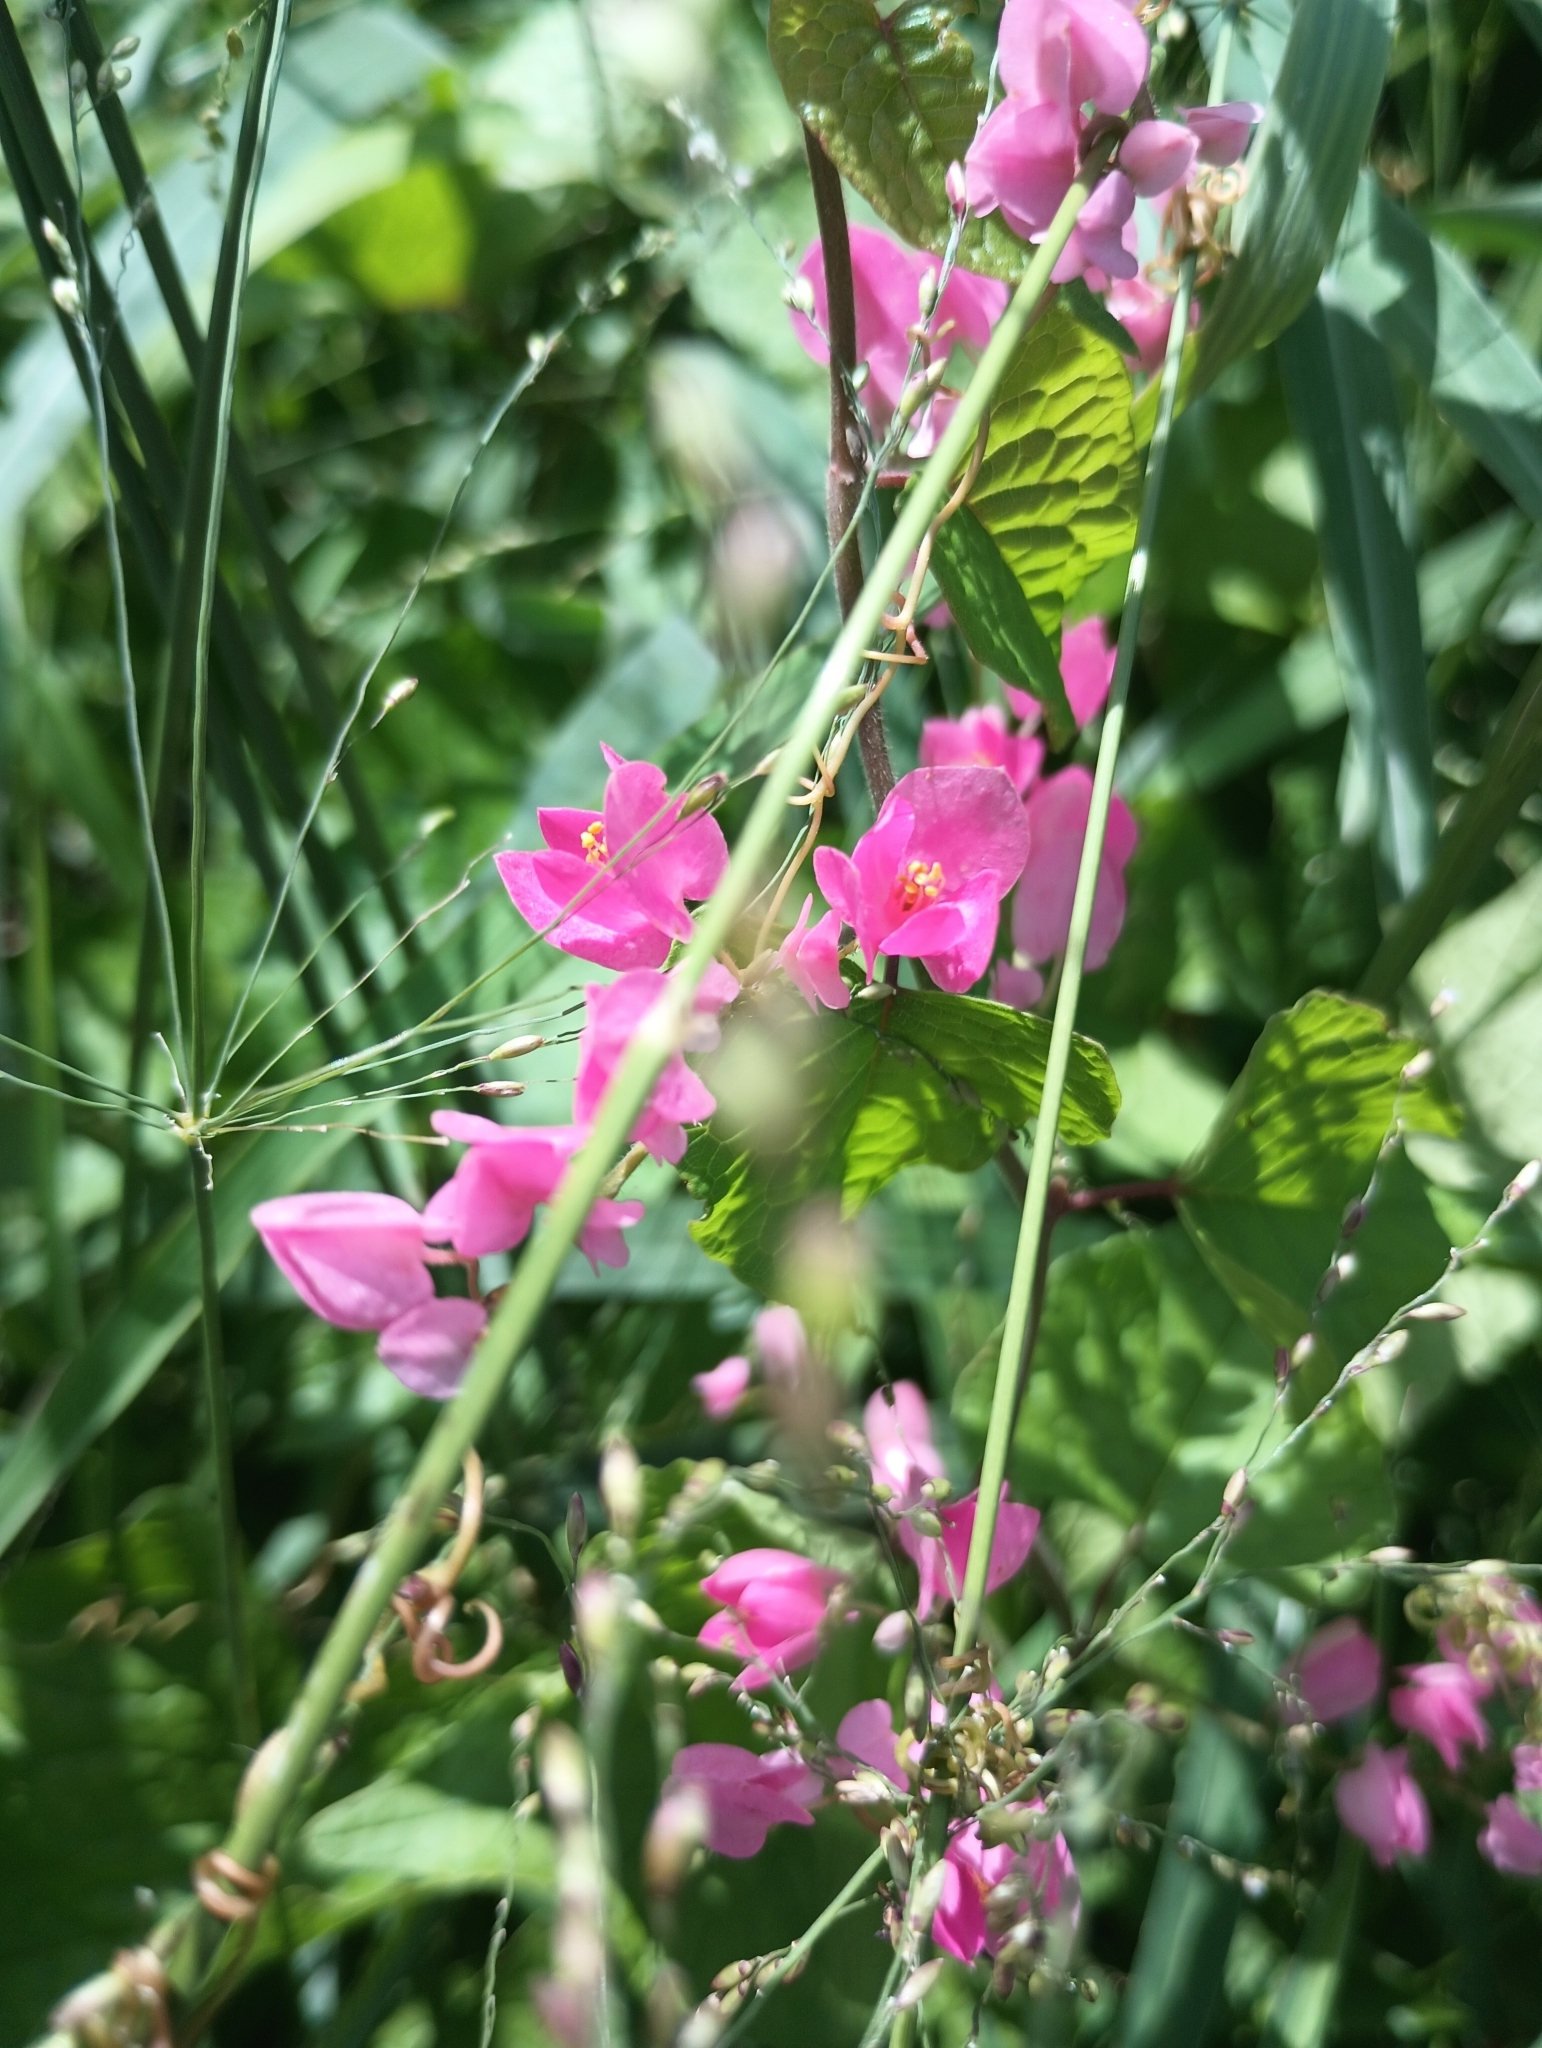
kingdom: Plantae
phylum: Tracheophyta
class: Magnoliopsida
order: Caryophyllales
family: Polygonaceae
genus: Antigonon
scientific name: Antigonon leptopus
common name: Coral vine
